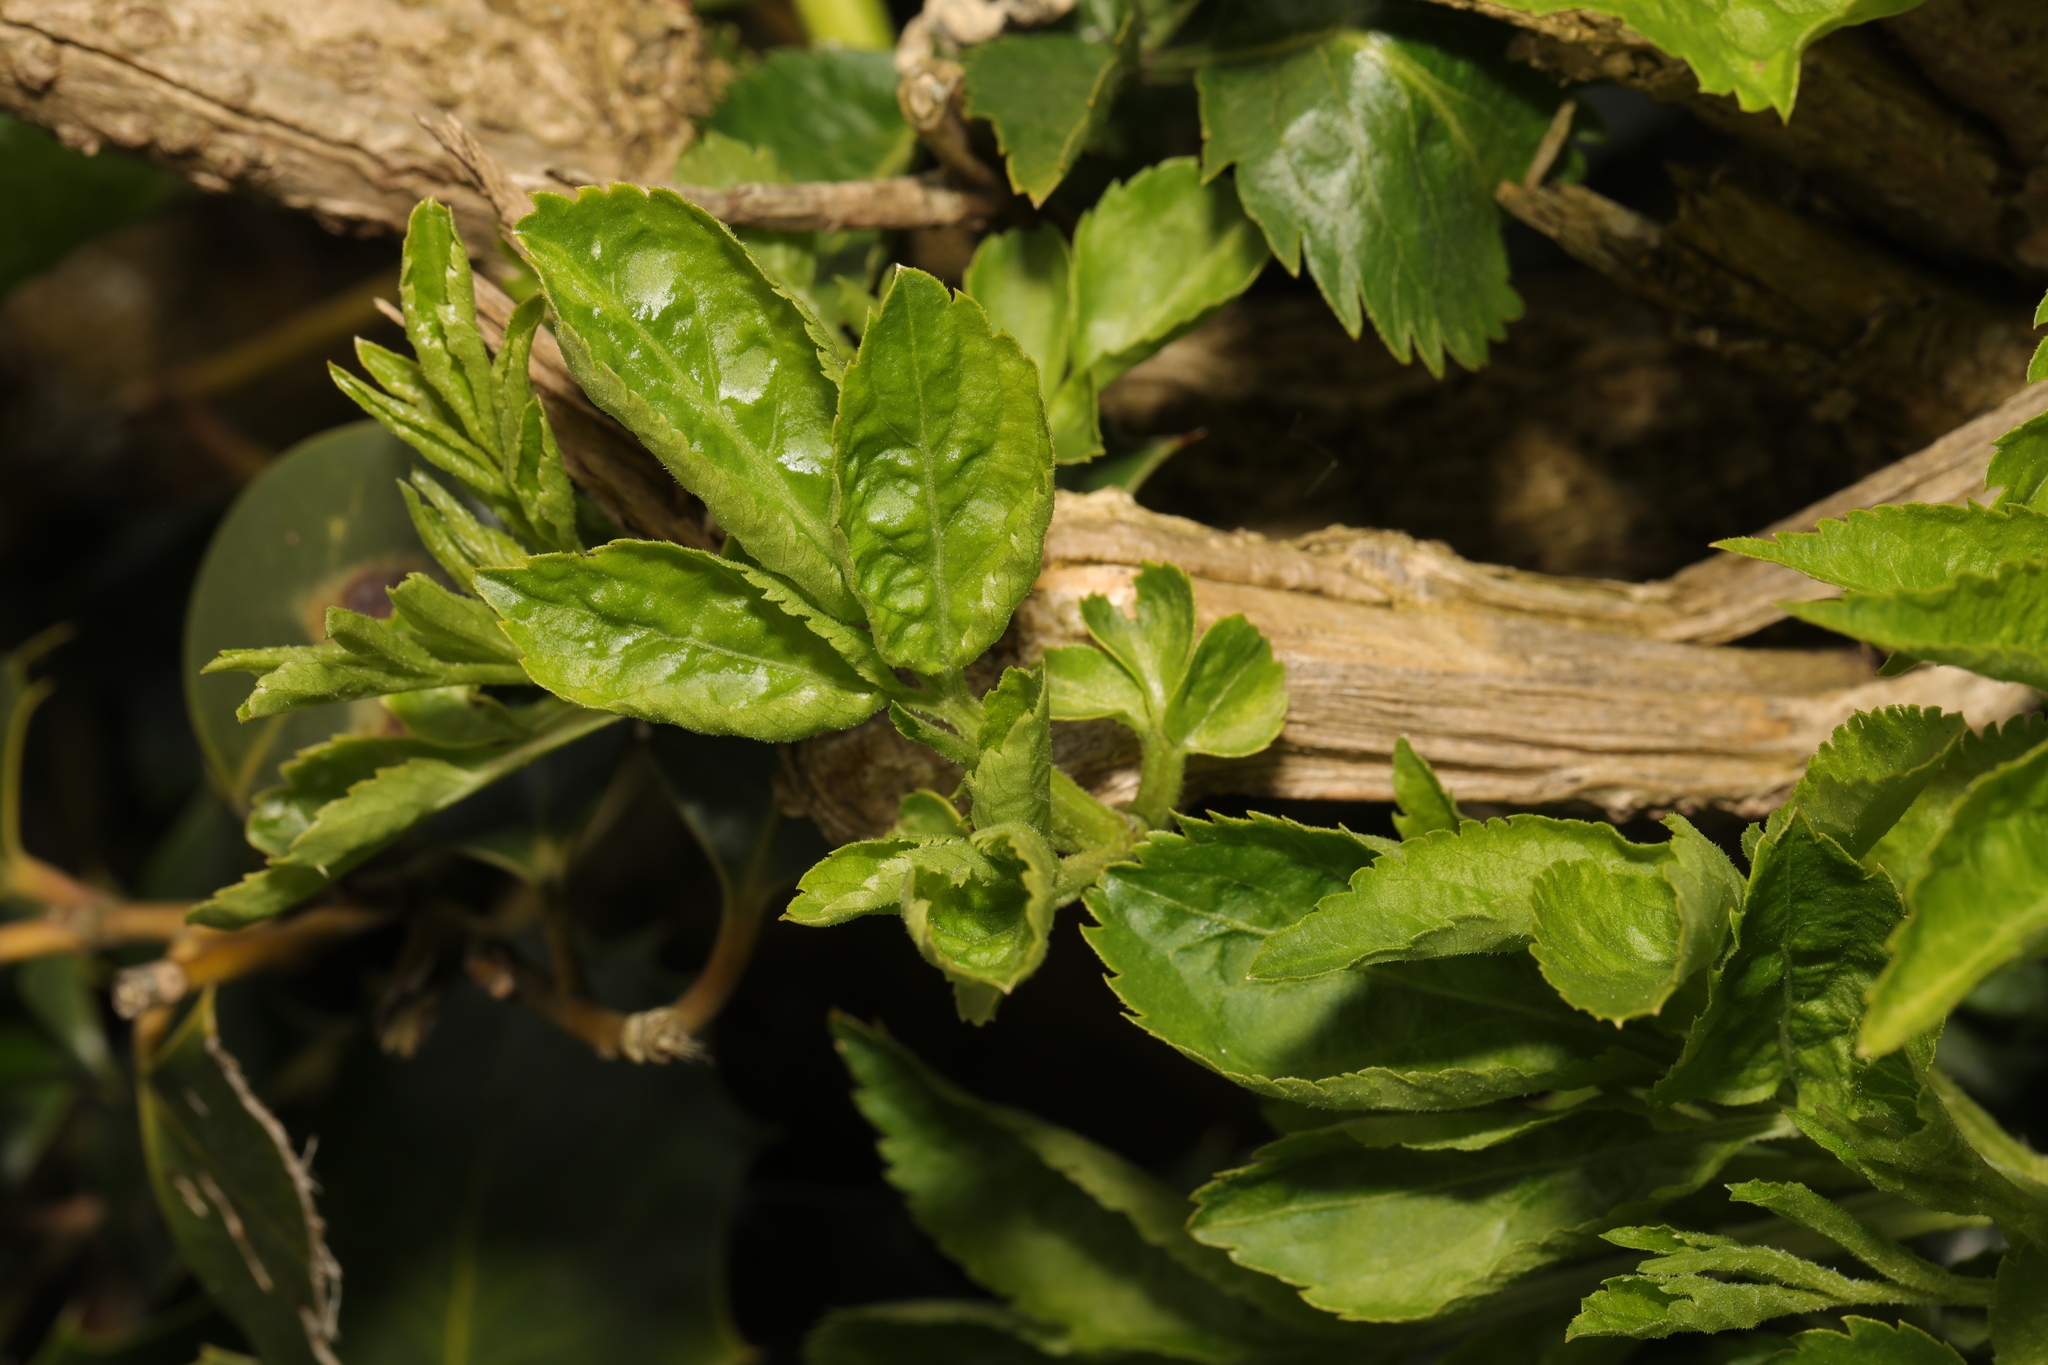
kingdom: Plantae
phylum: Tracheophyta
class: Magnoliopsida
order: Dipsacales
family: Viburnaceae
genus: Sambucus
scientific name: Sambucus nigra
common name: Elder
